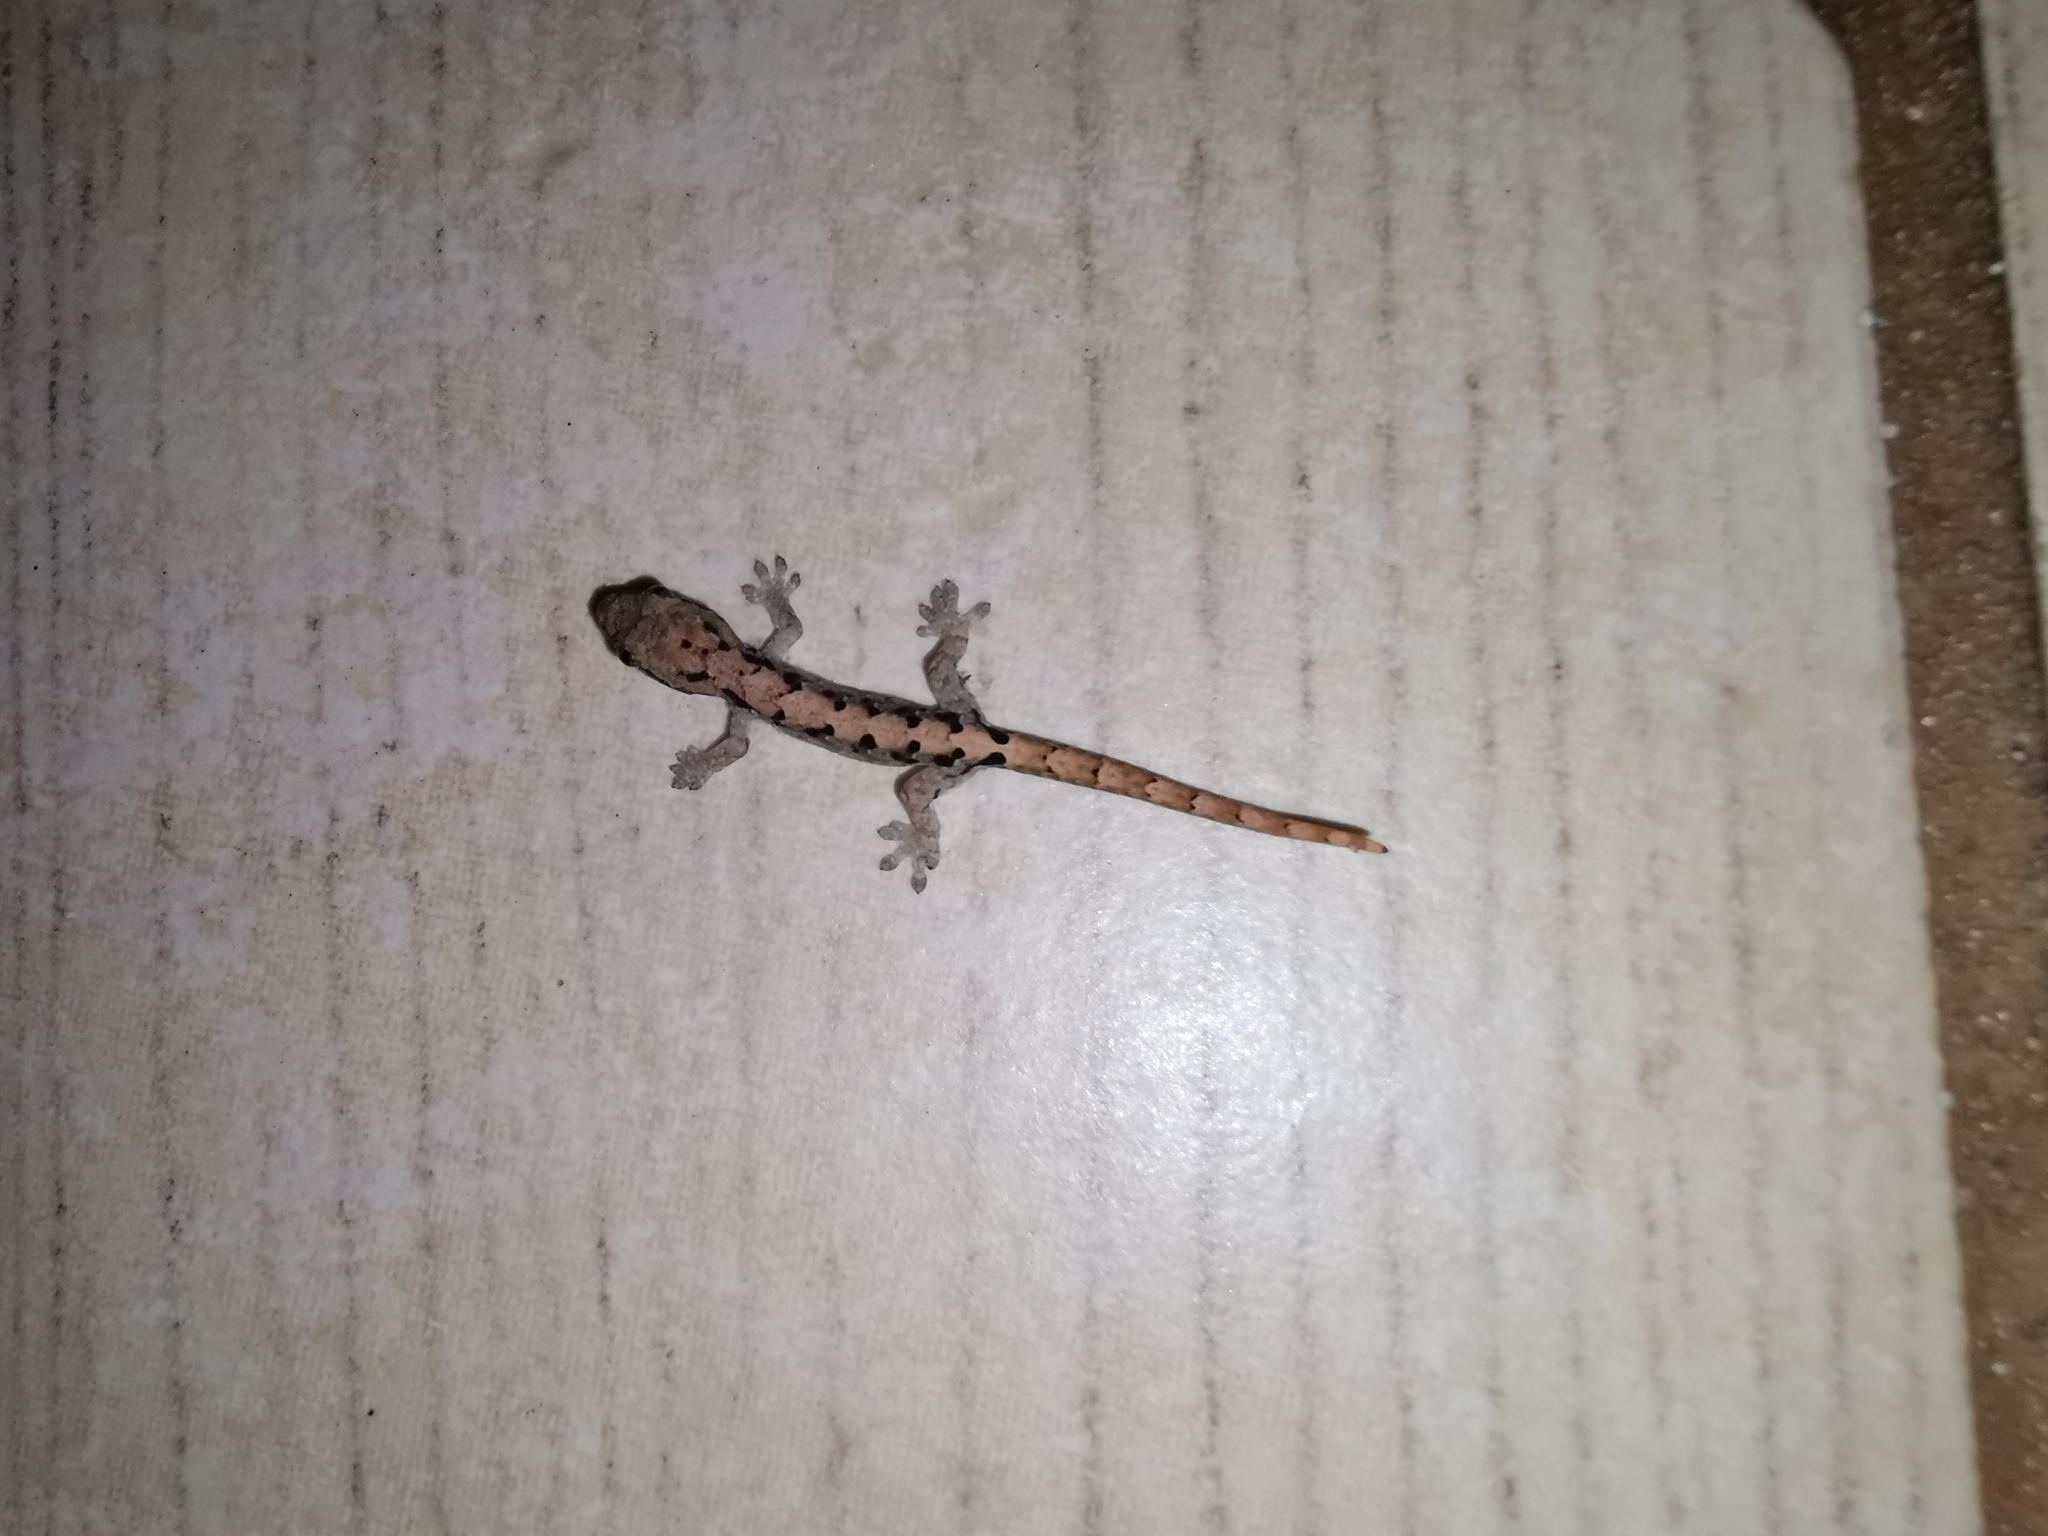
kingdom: Animalia
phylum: Chordata
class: Squamata
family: Gekkonidae
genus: Lepidodactylus
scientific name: Lepidodactylus lugubris
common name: Mourning gecko
